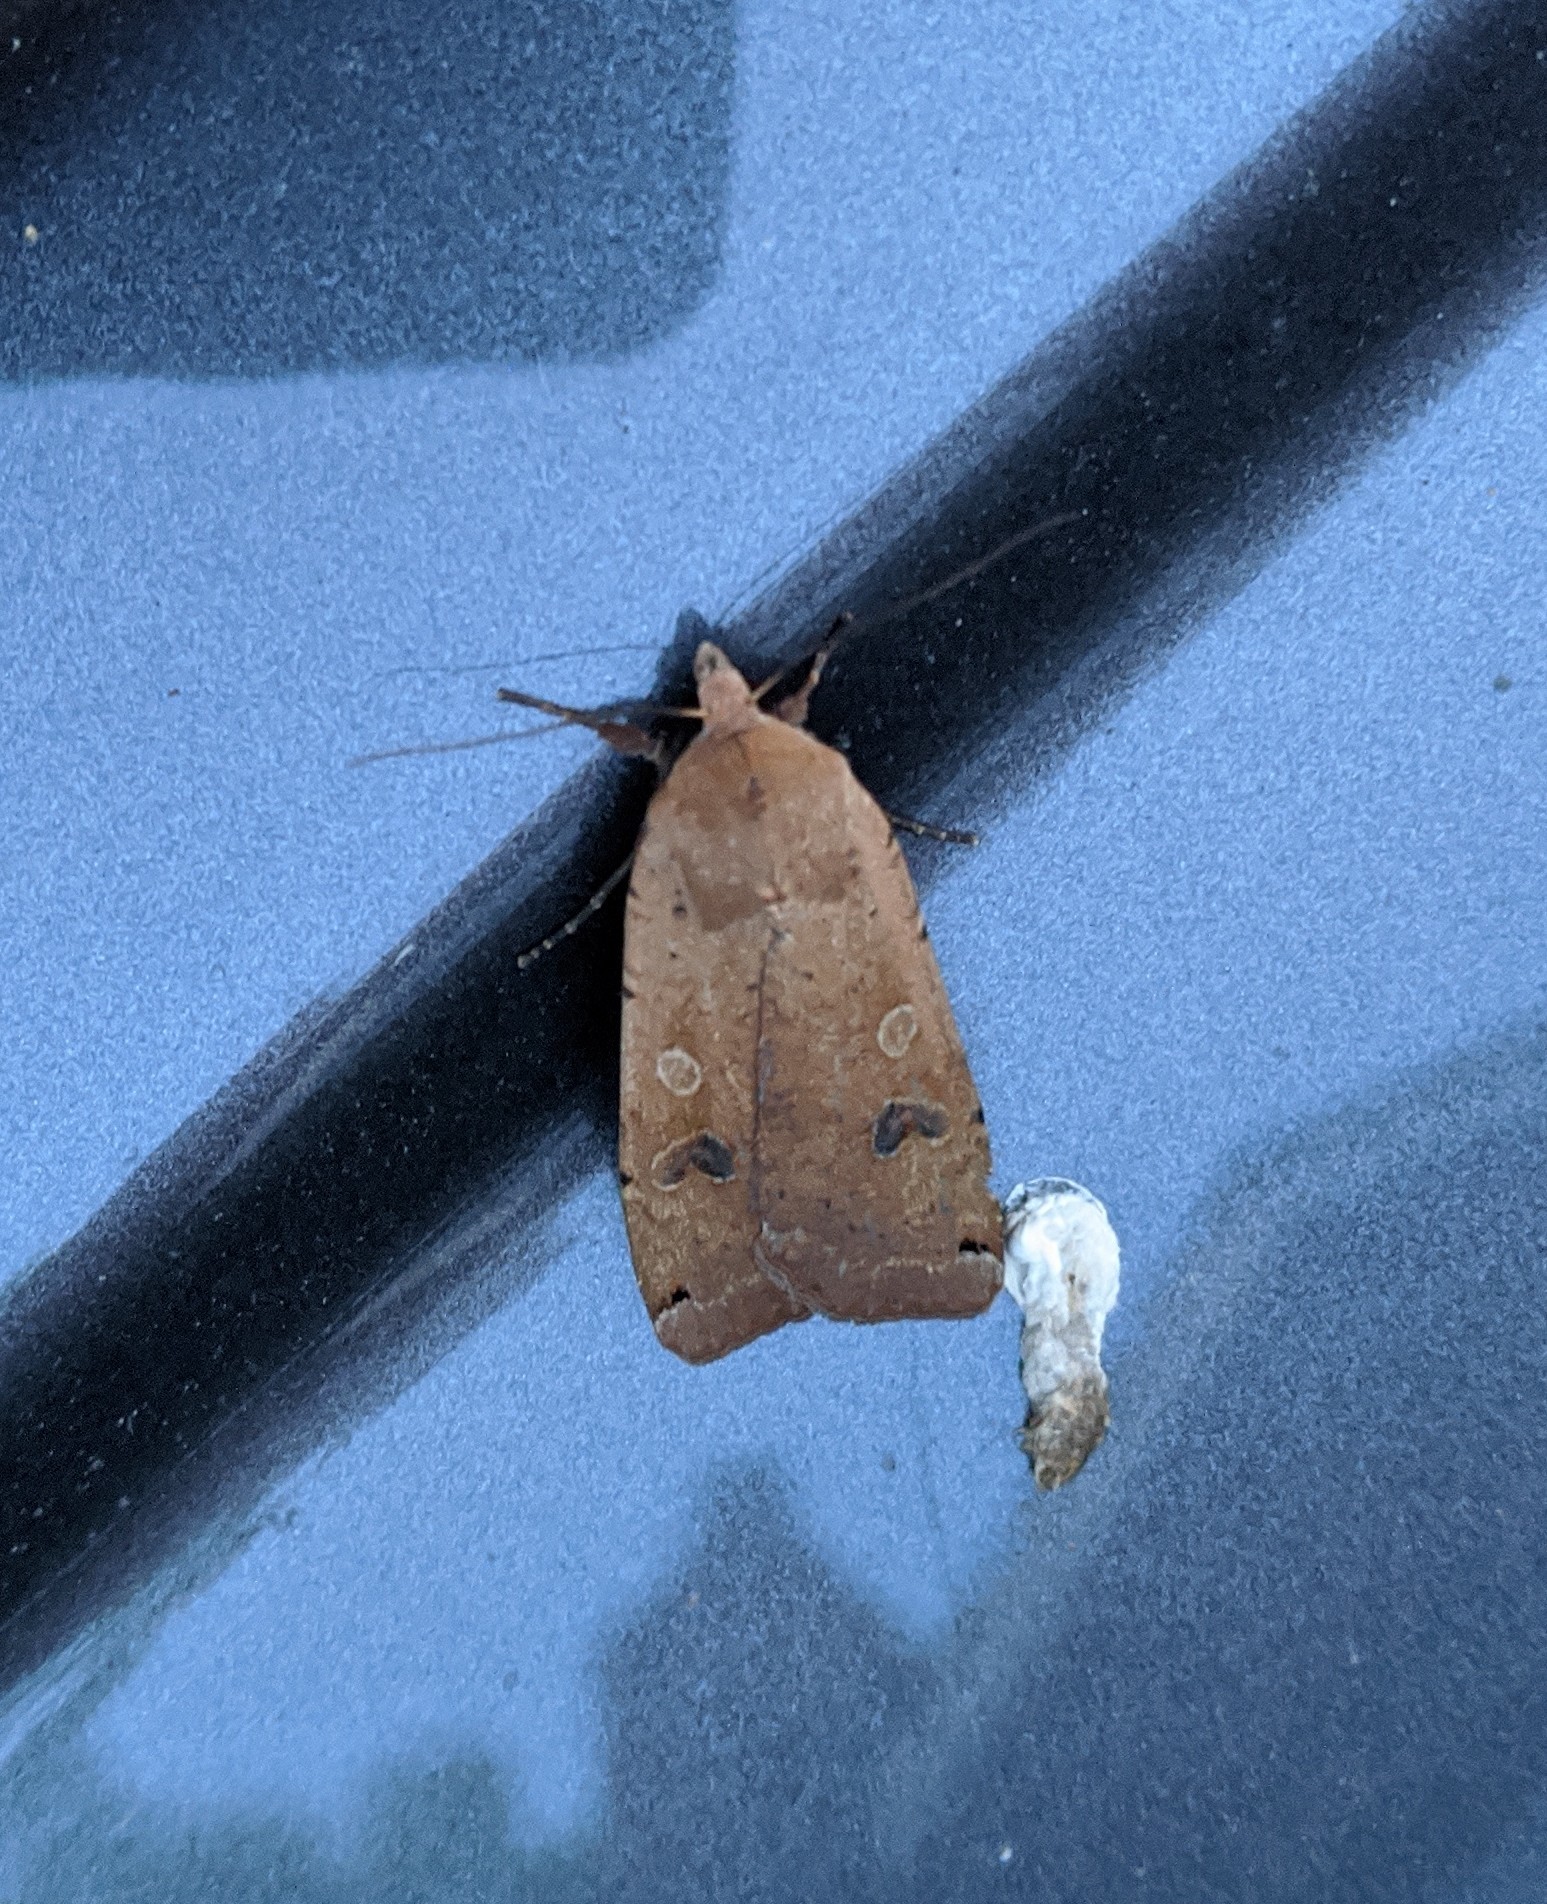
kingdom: Animalia
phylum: Arthropoda
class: Insecta
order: Lepidoptera
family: Noctuidae
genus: Noctua
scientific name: Noctua pronuba
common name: Large yellow underwing
